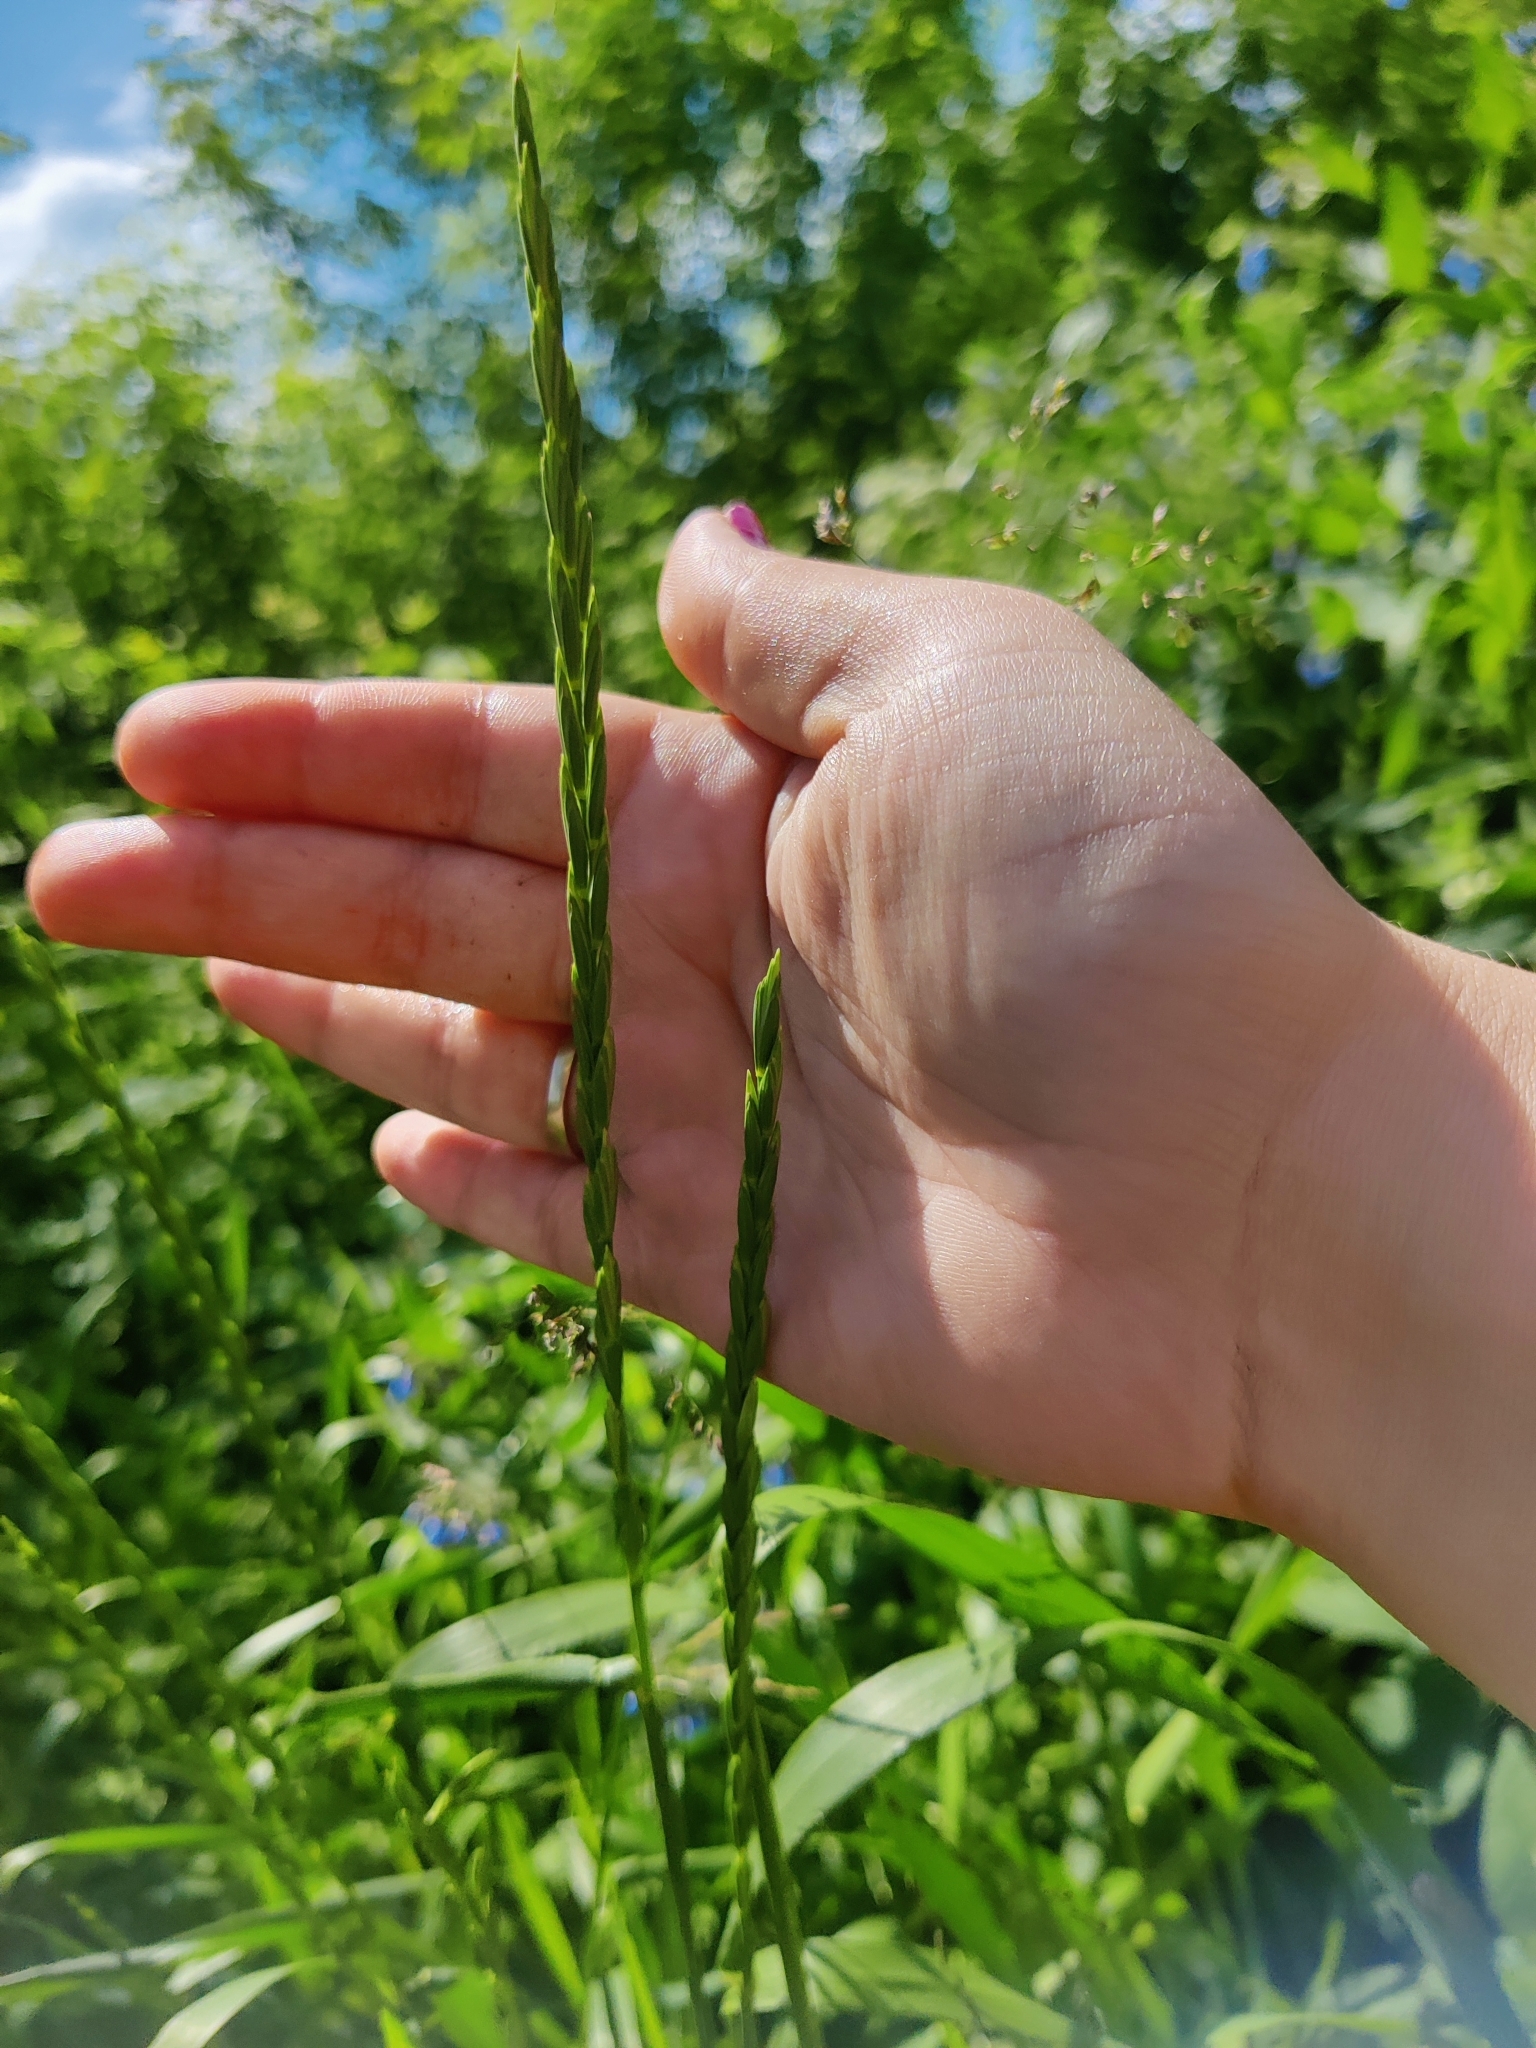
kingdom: Plantae
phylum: Tracheophyta
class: Liliopsida
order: Poales
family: Poaceae
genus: Elymus
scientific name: Elymus repens
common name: Quackgrass
